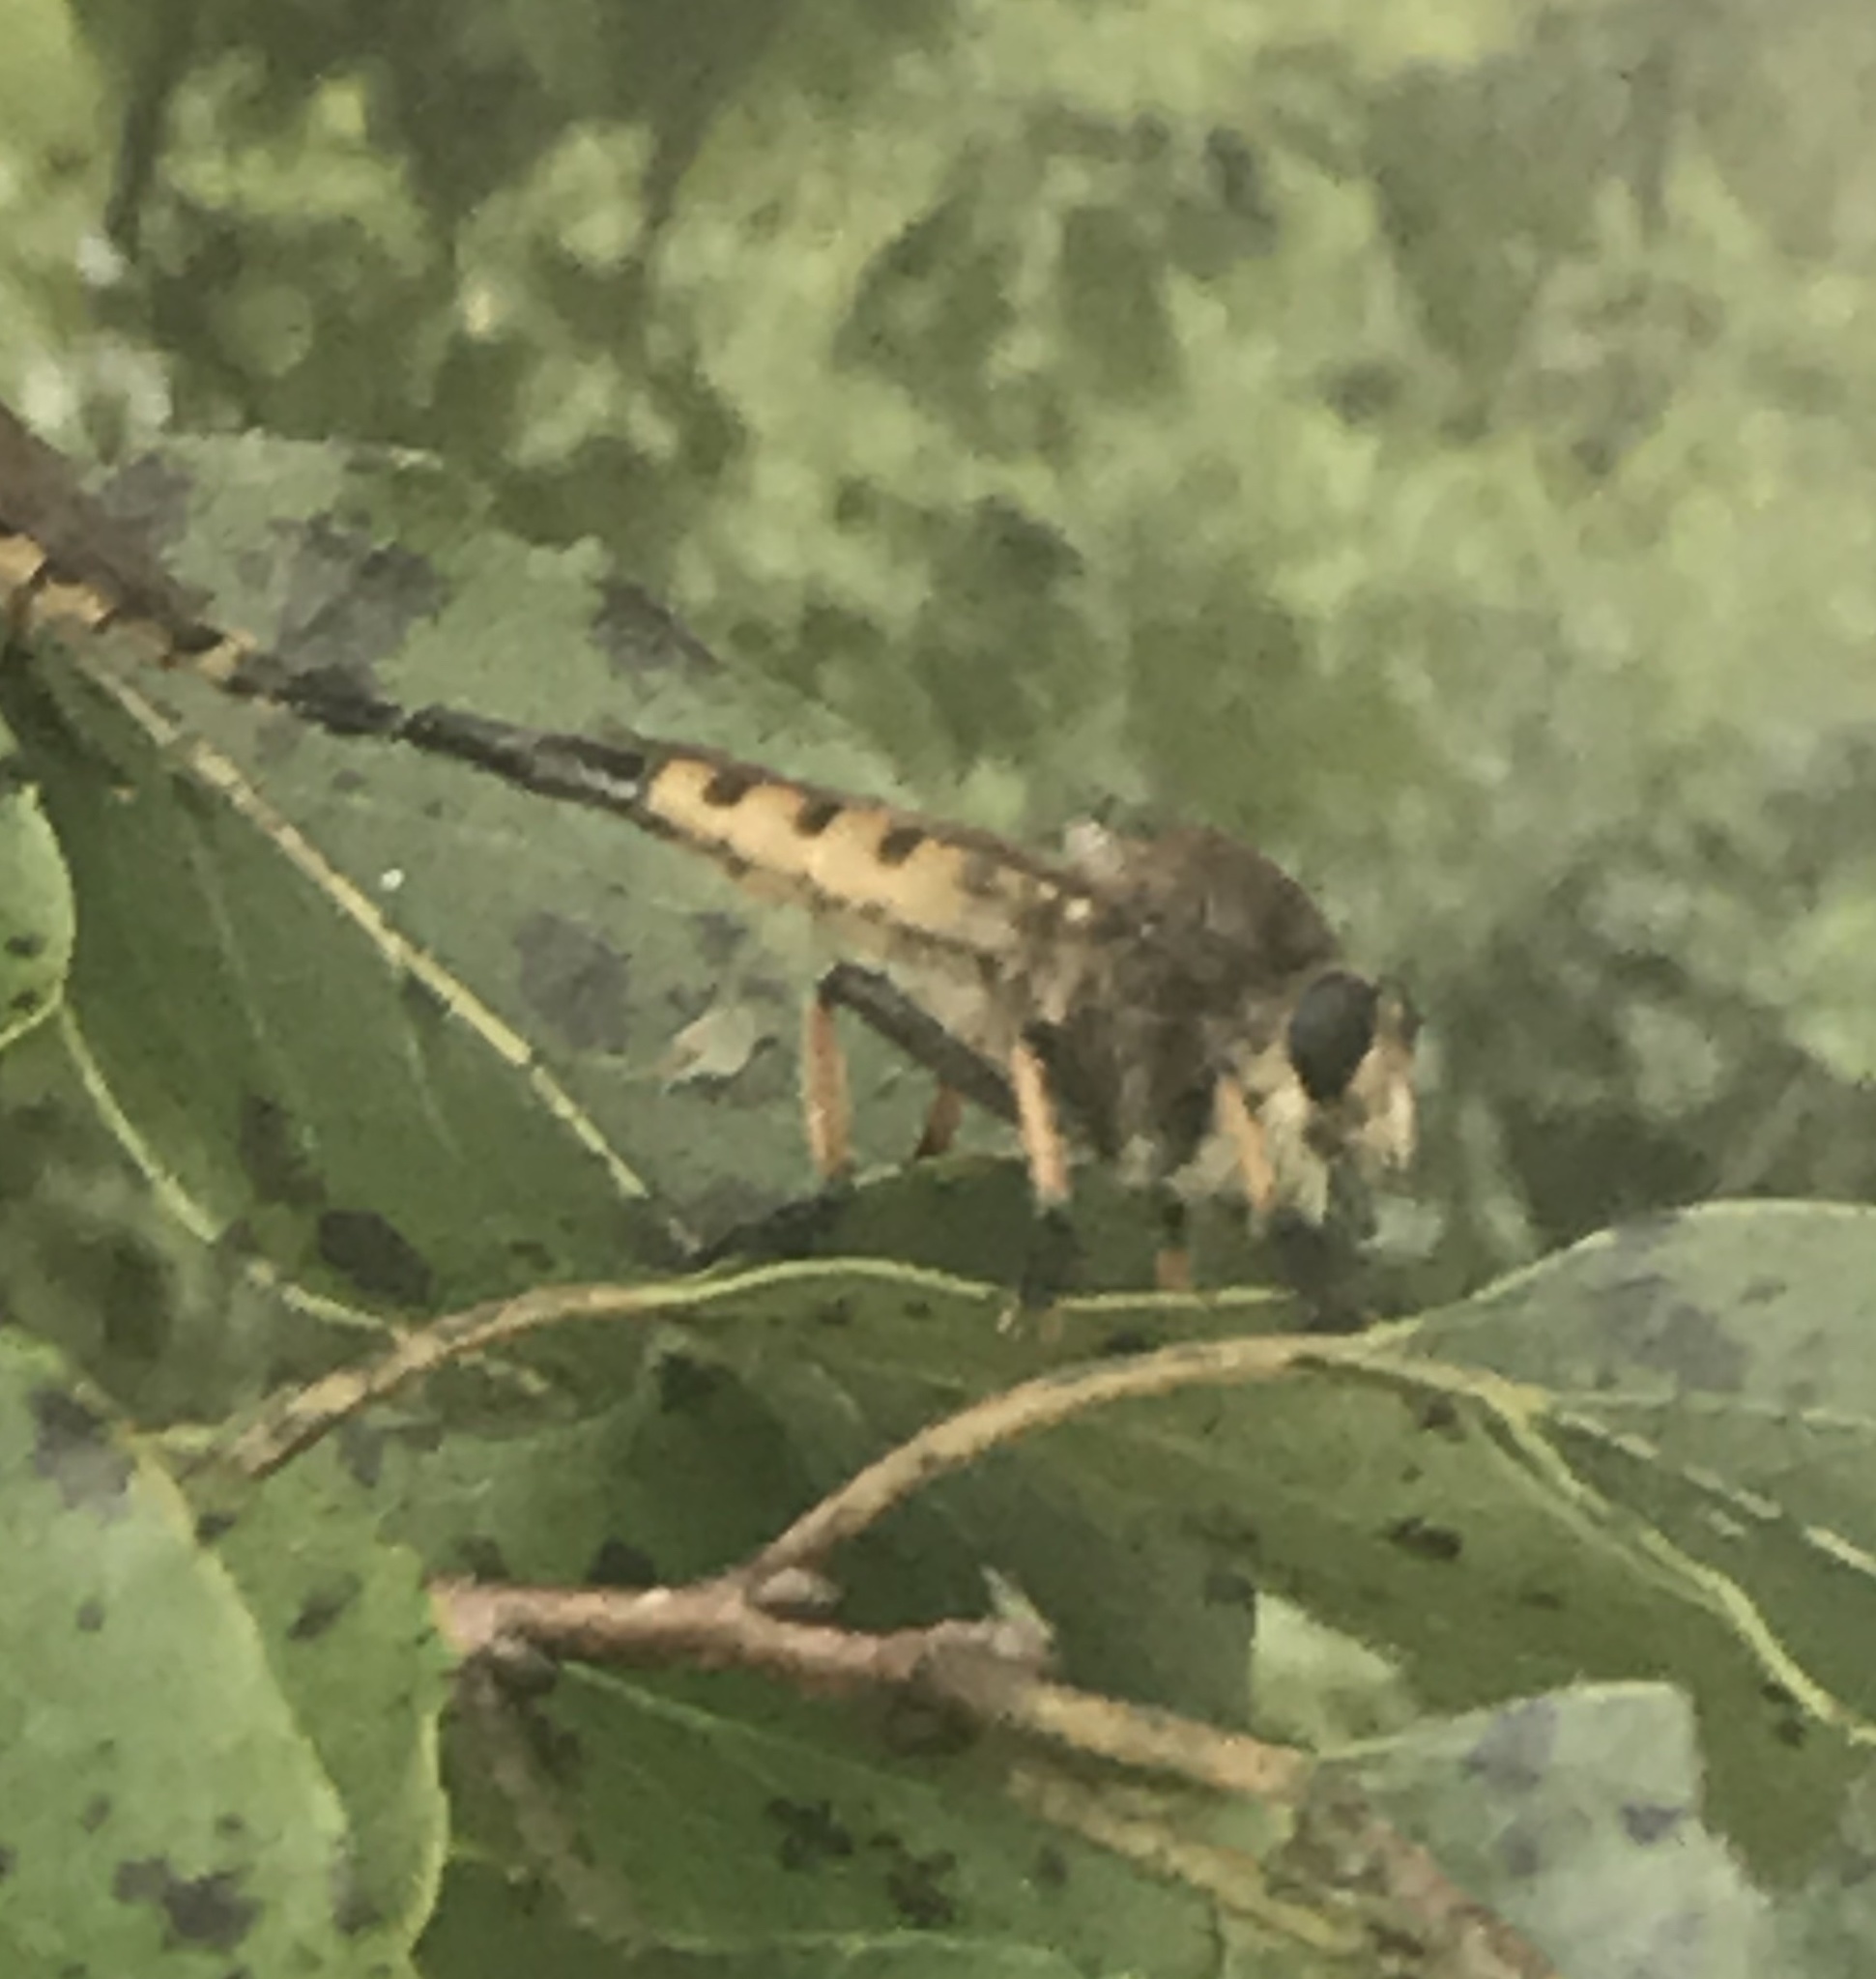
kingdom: Animalia
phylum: Arthropoda
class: Insecta
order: Diptera
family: Asilidae
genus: Promachus
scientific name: Promachus rufipes
